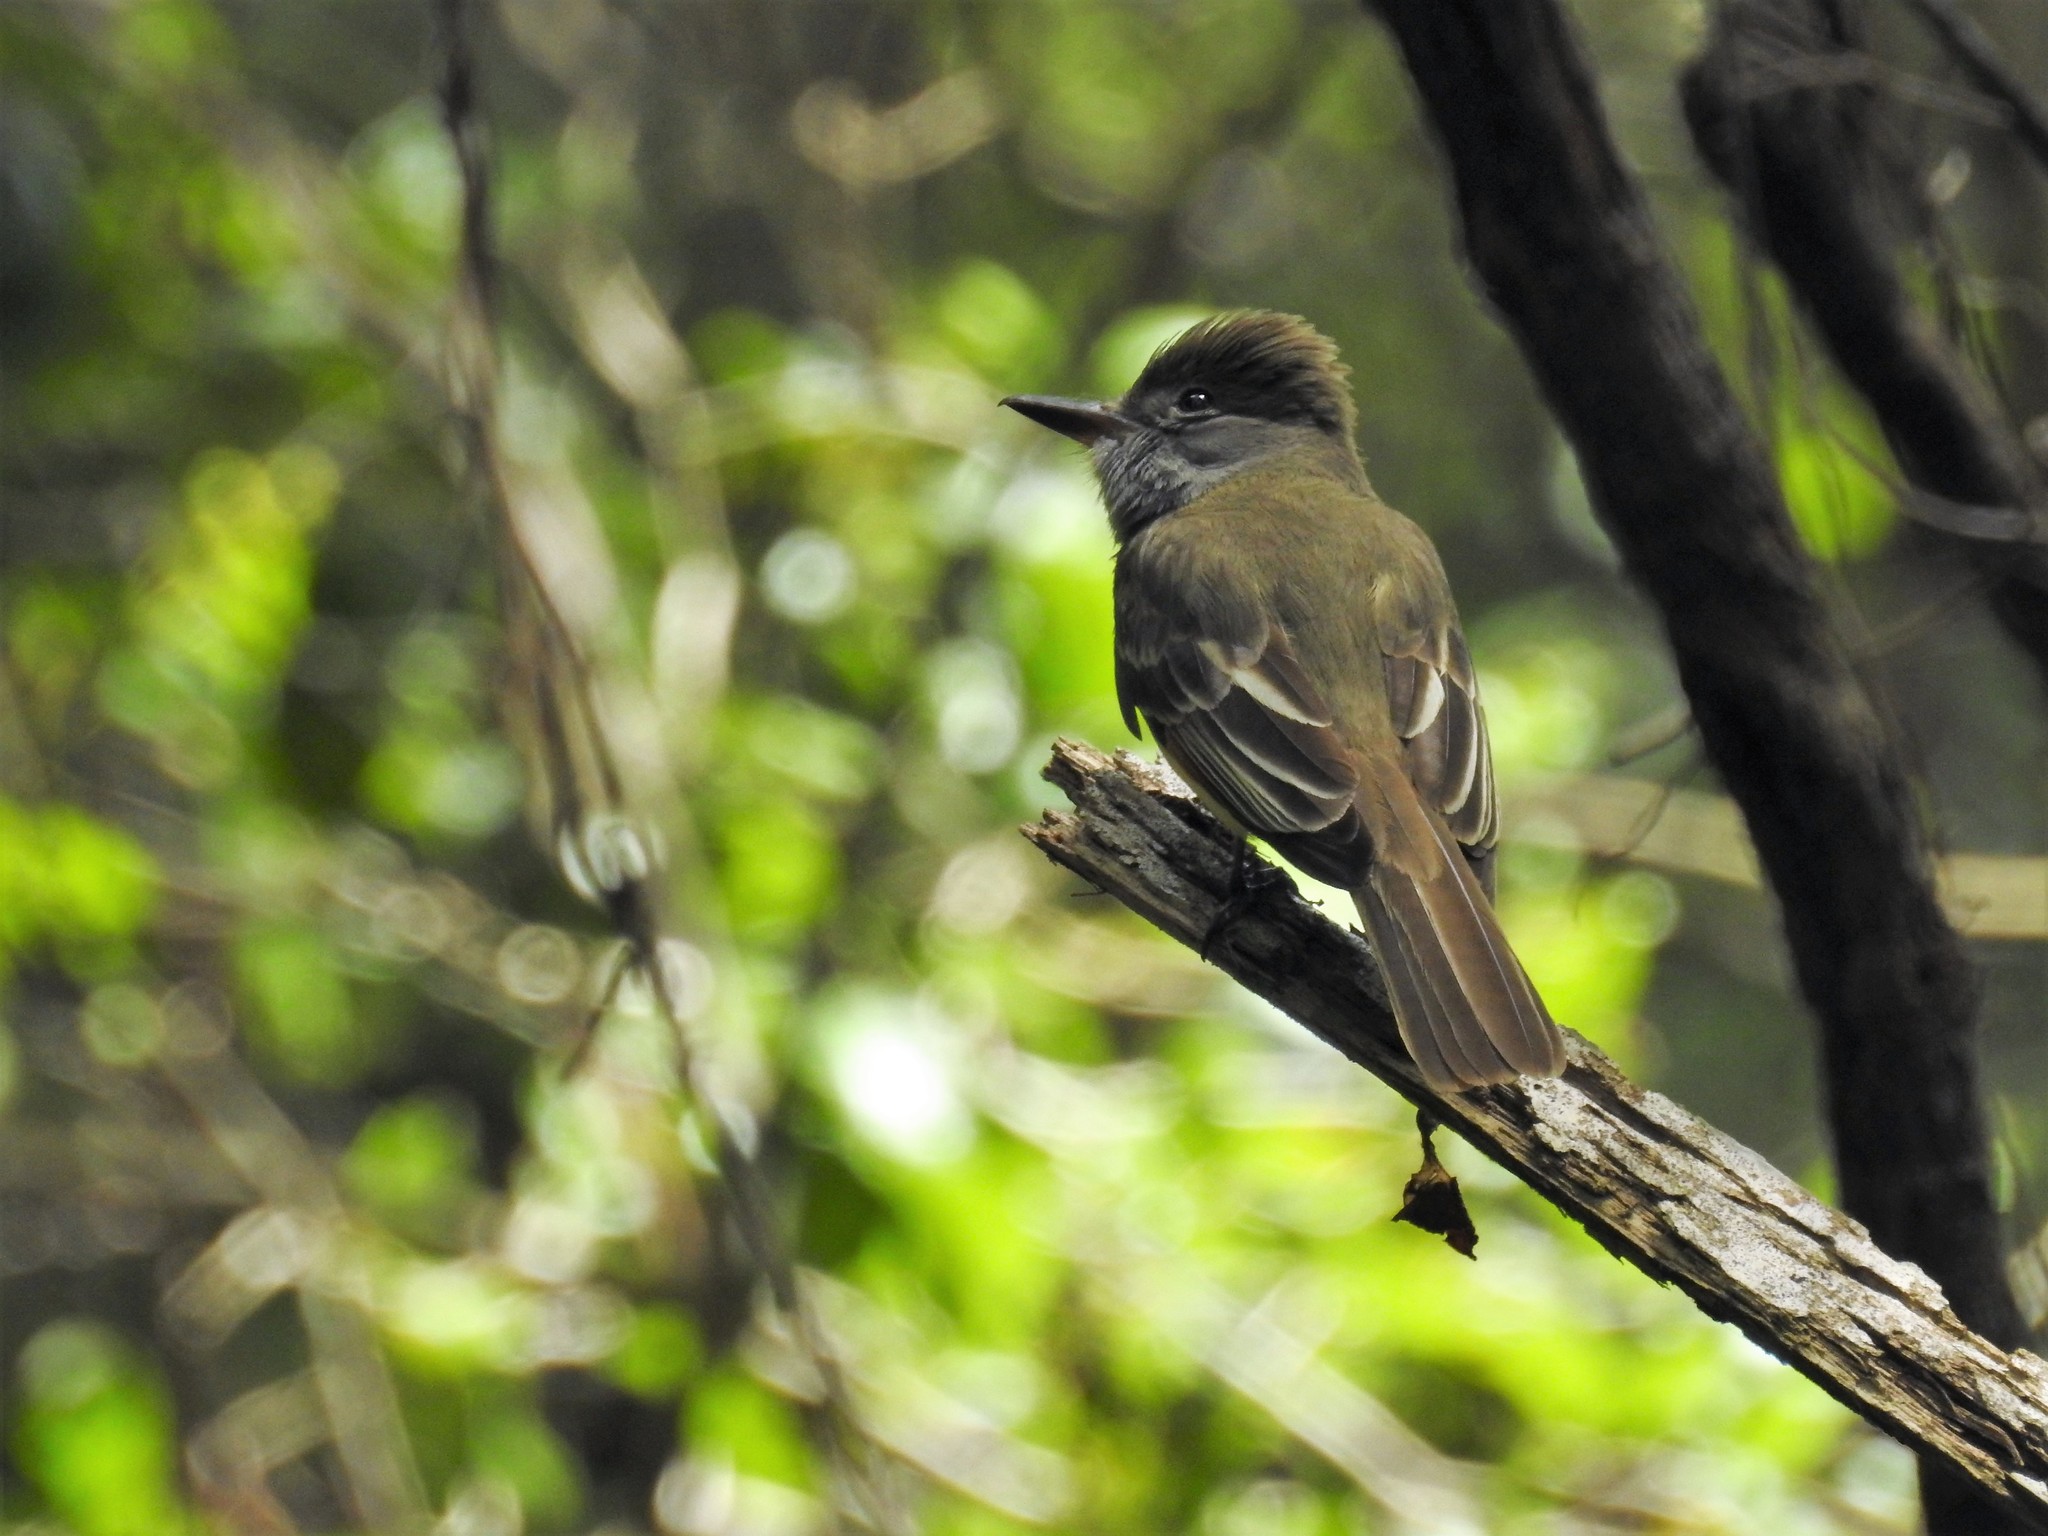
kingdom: Animalia
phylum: Chordata
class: Aves
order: Passeriformes
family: Tyrannidae
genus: Myiarchus
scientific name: Myiarchus crinitus
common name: Great crested flycatcher
